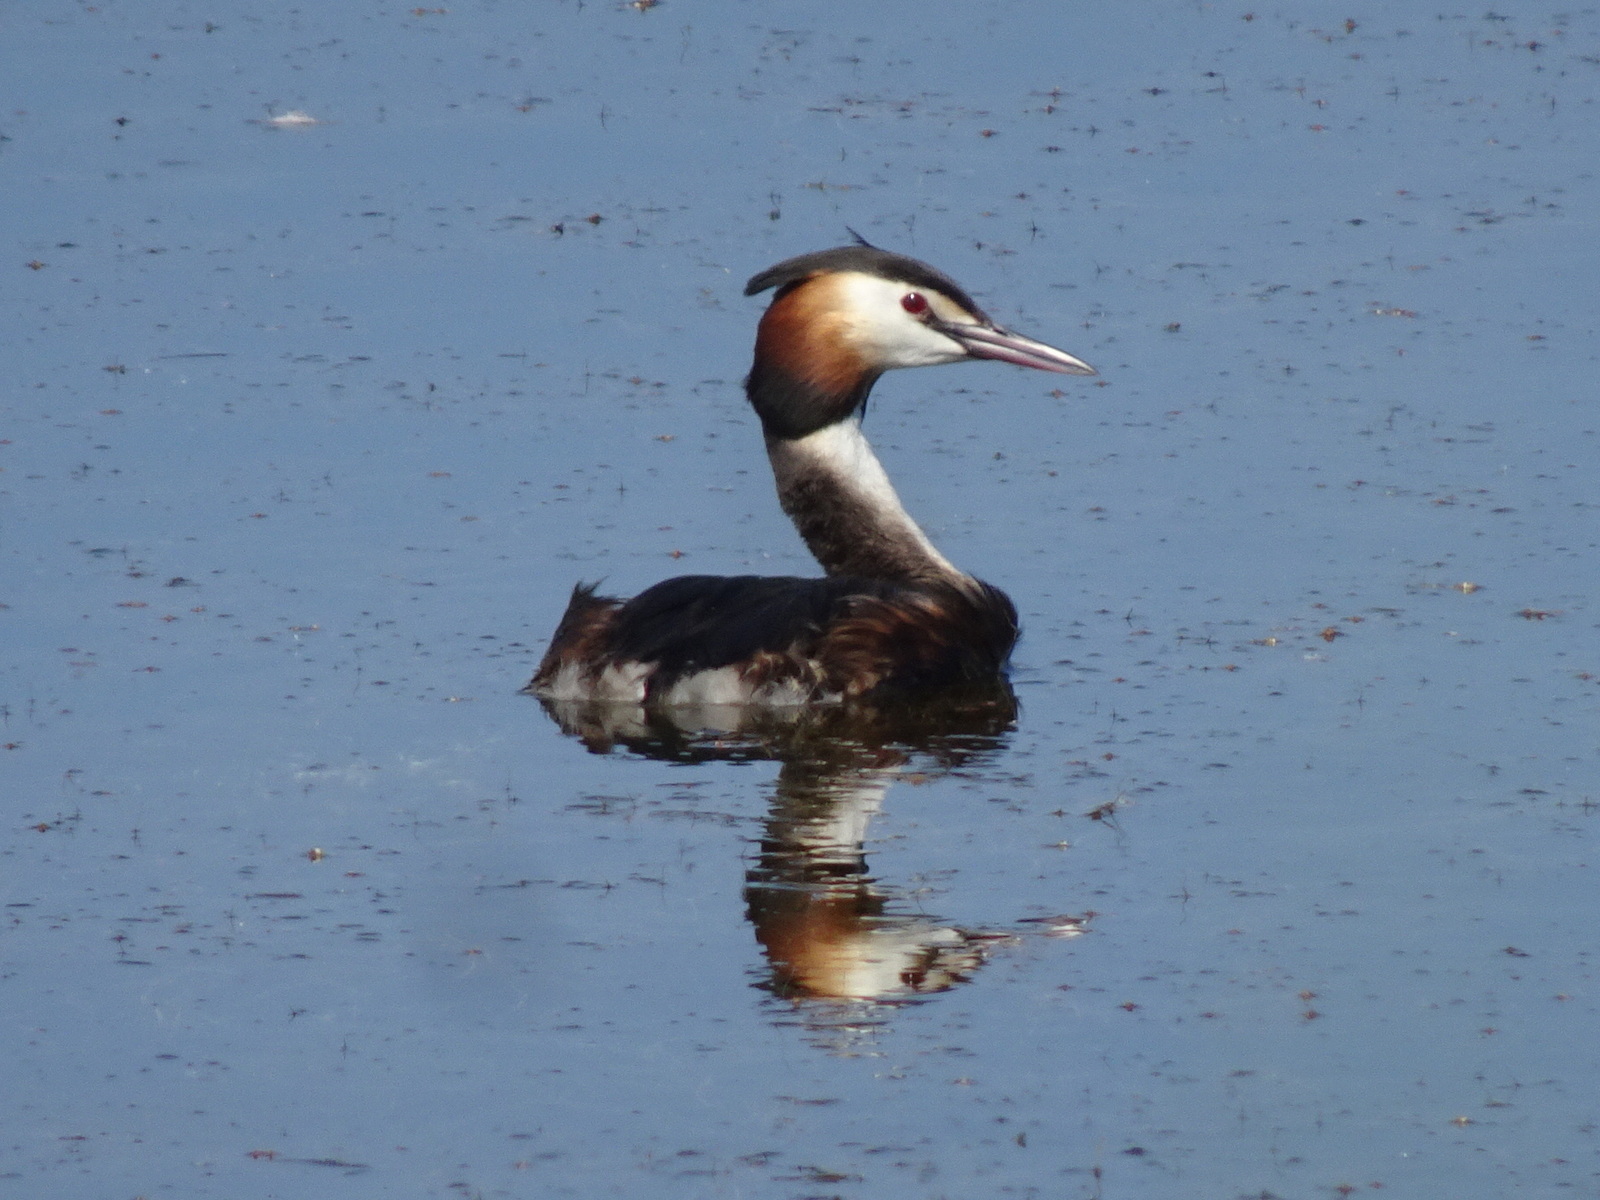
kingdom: Animalia
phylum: Chordata
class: Aves
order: Podicipediformes
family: Podicipedidae
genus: Podiceps
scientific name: Podiceps cristatus
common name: Great crested grebe
